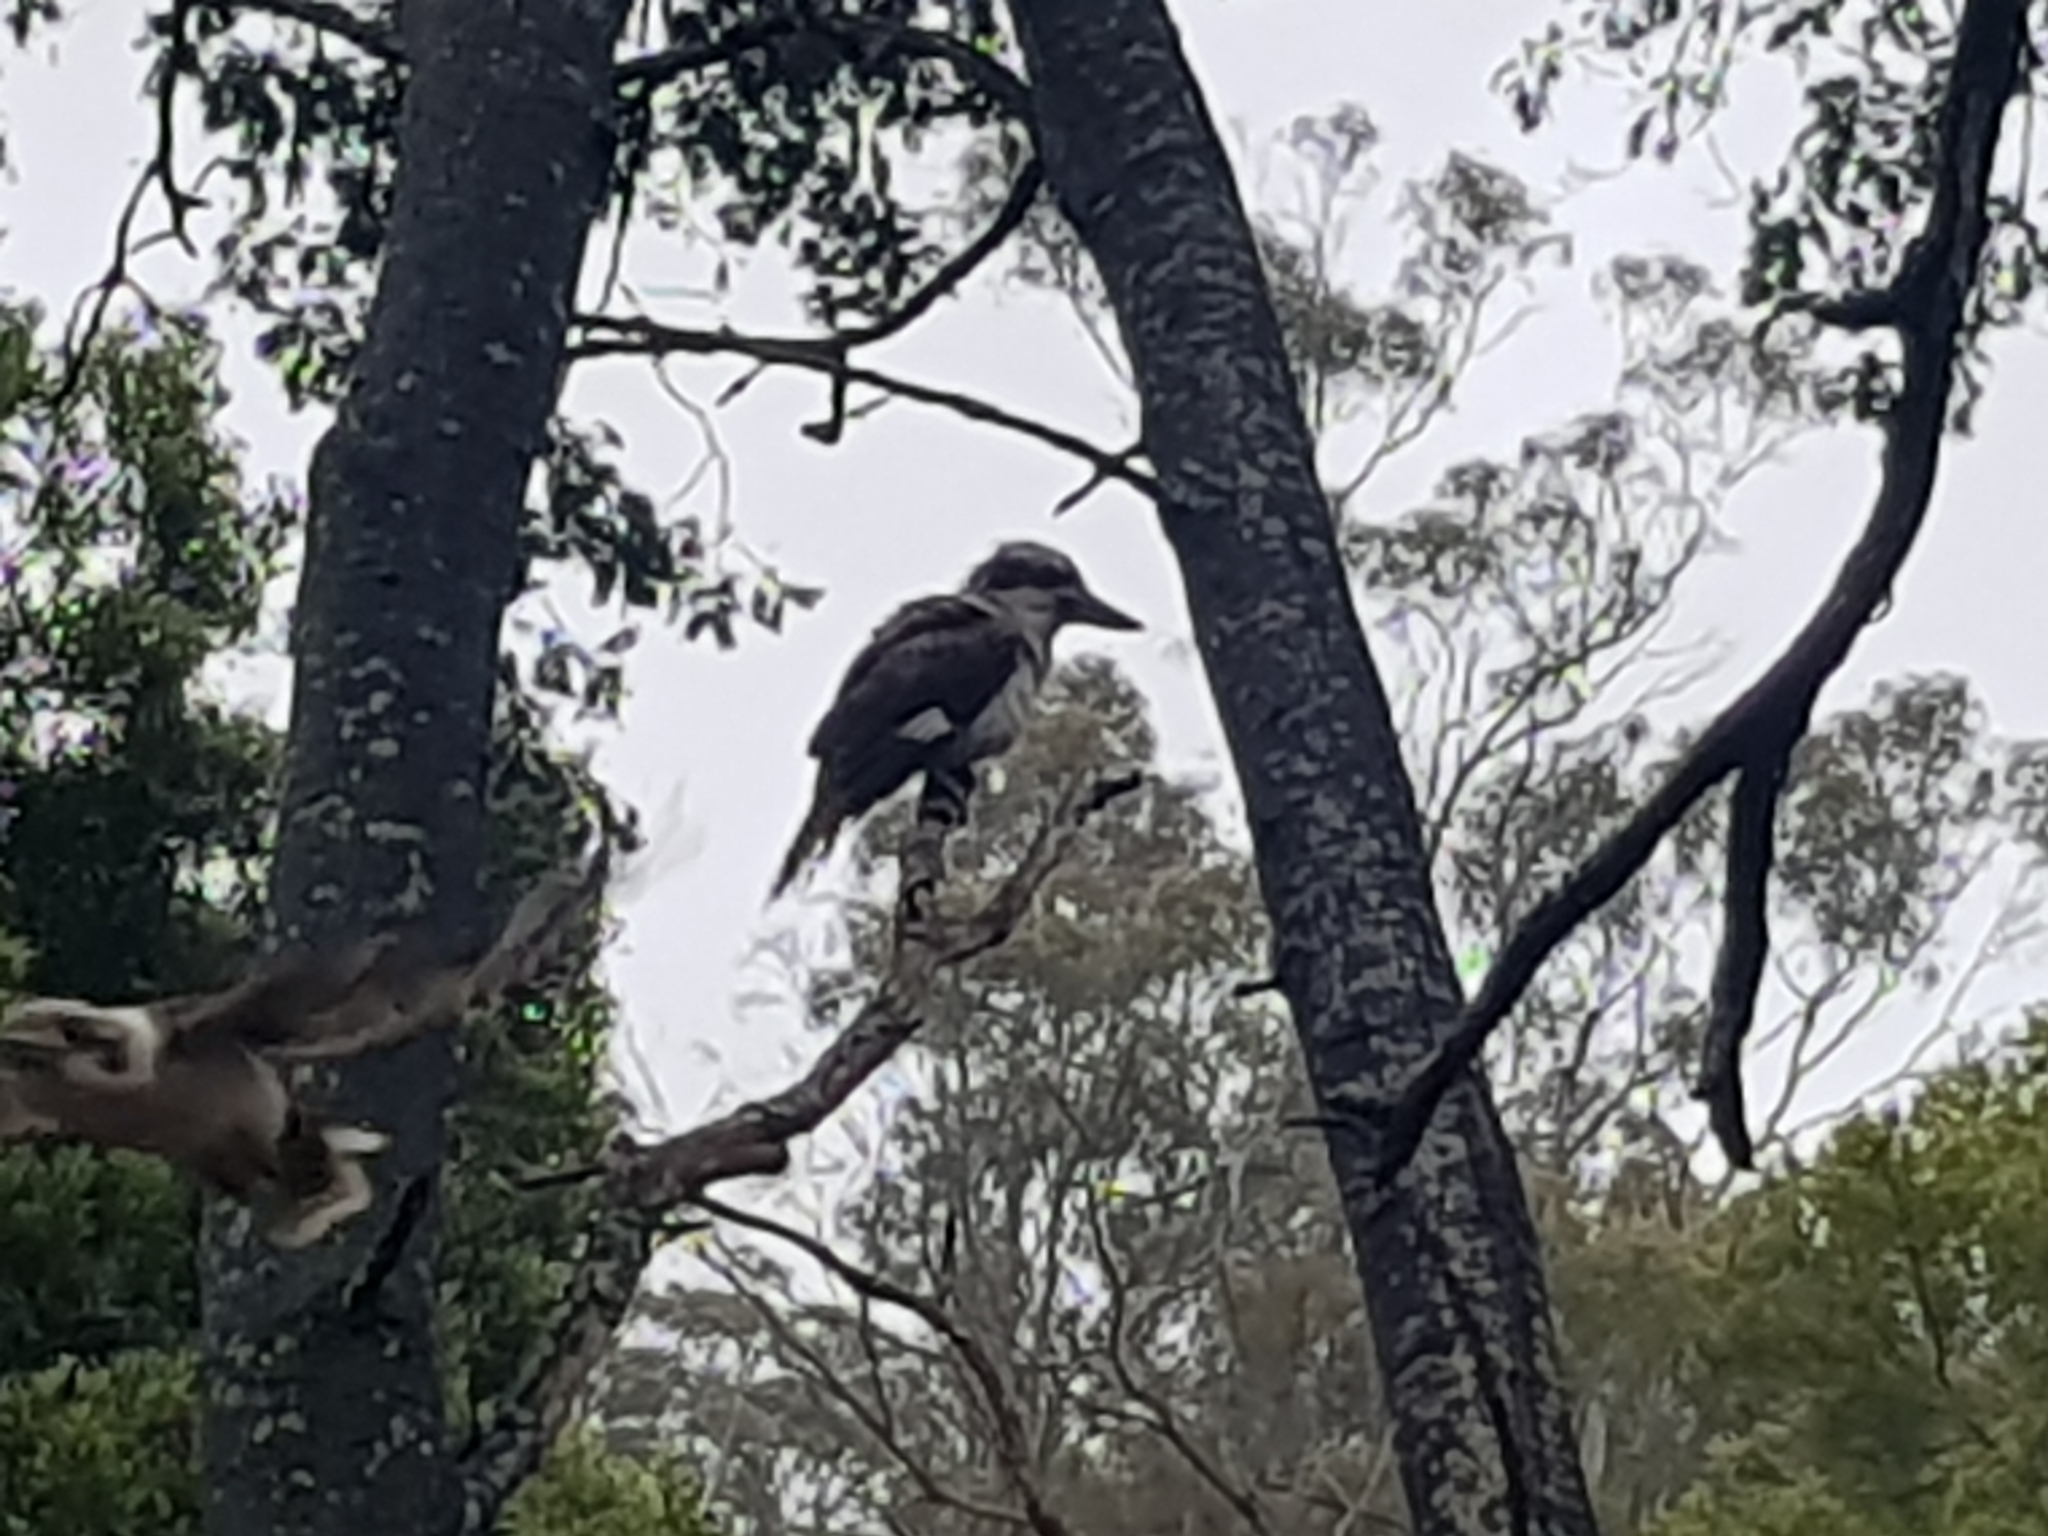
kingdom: Animalia
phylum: Chordata
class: Aves
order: Coraciiformes
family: Alcedinidae
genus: Dacelo
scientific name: Dacelo novaeguineae
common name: Laughing kookaburra
